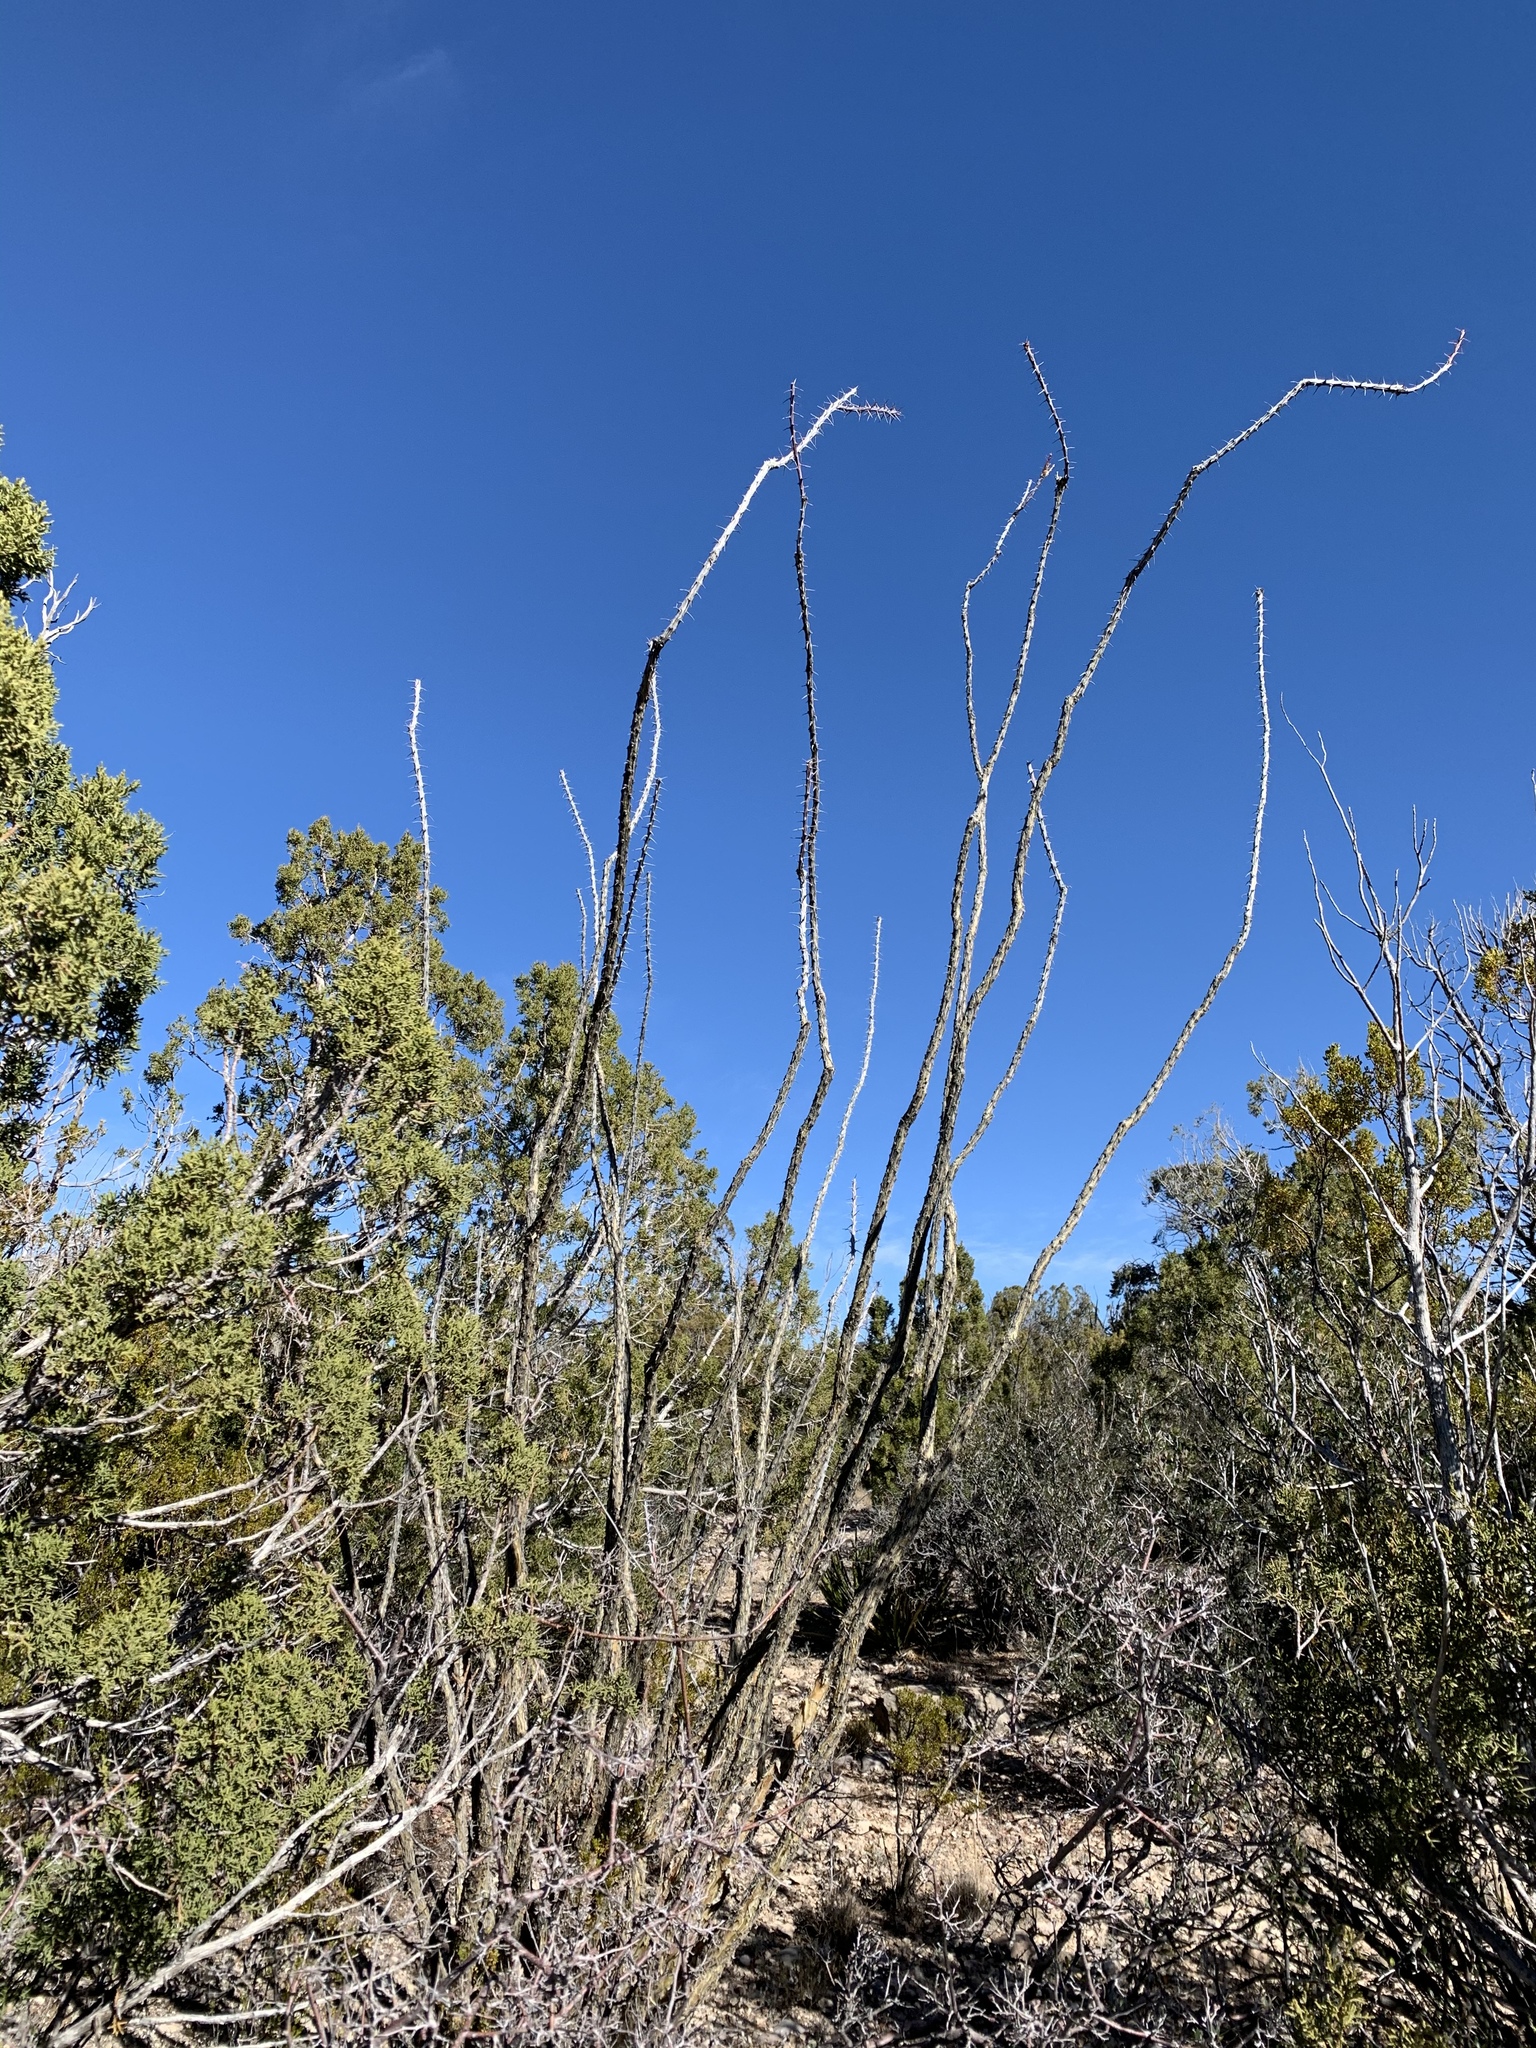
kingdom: Plantae
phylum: Tracheophyta
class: Magnoliopsida
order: Ericales
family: Fouquieriaceae
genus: Fouquieria
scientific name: Fouquieria splendens
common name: Vine-cactus
